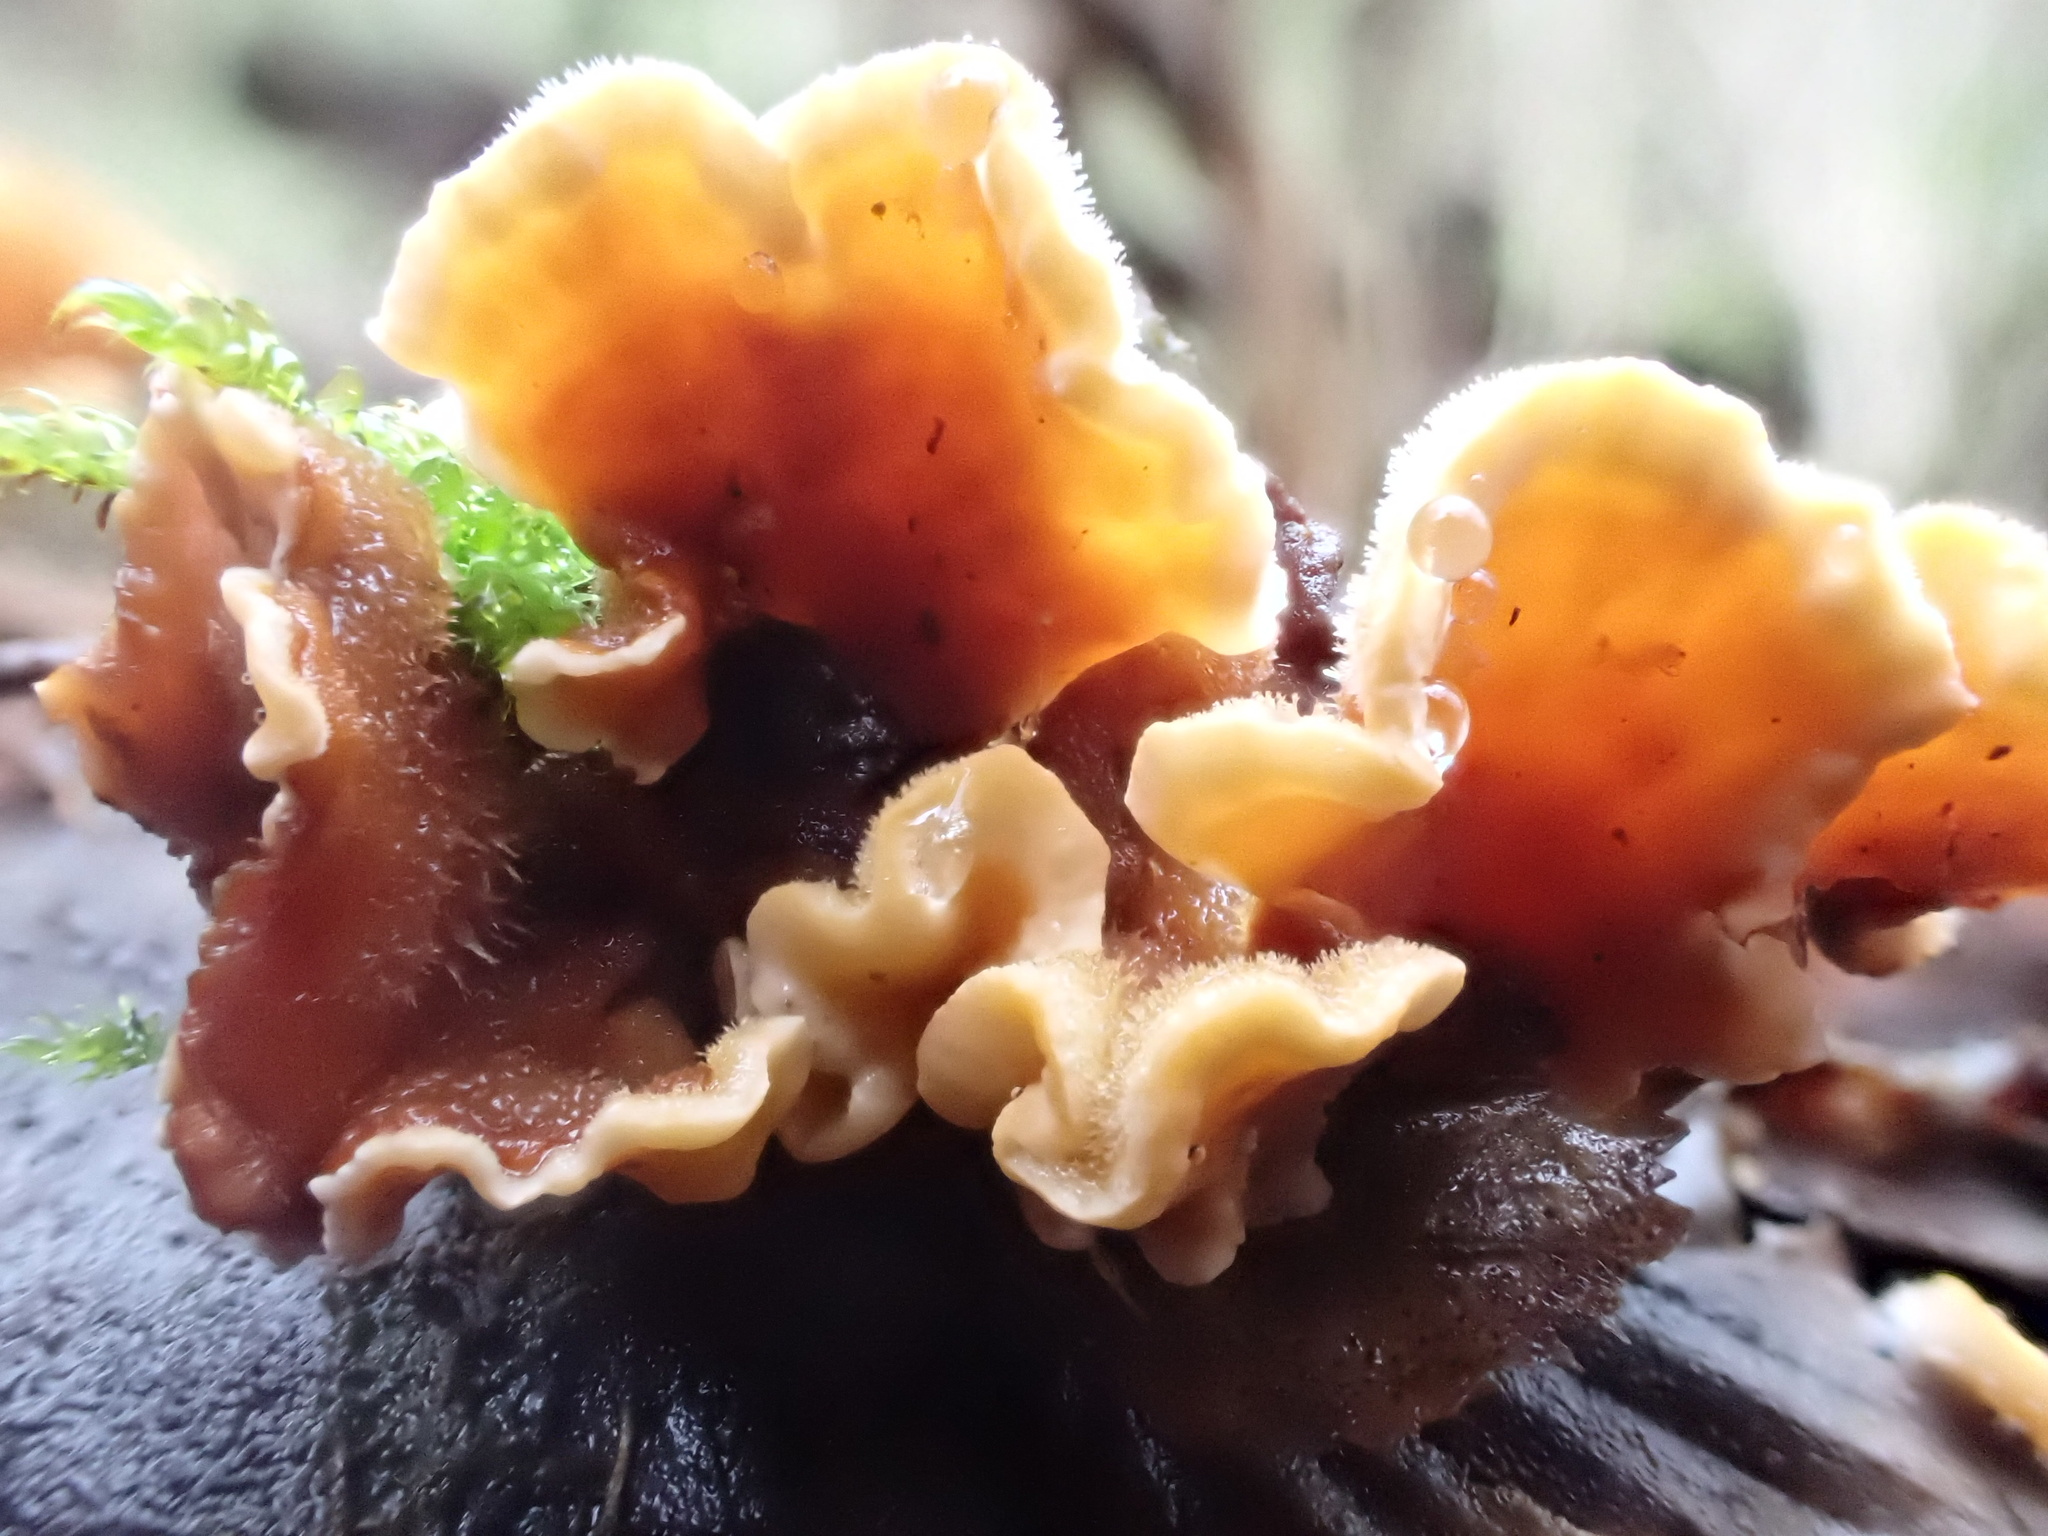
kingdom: Fungi
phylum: Basidiomycota
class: Agaricomycetes
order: Russulales
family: Stereaceae
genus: Stereum
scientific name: Stereum hirsutum
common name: Hairy curtain crust
